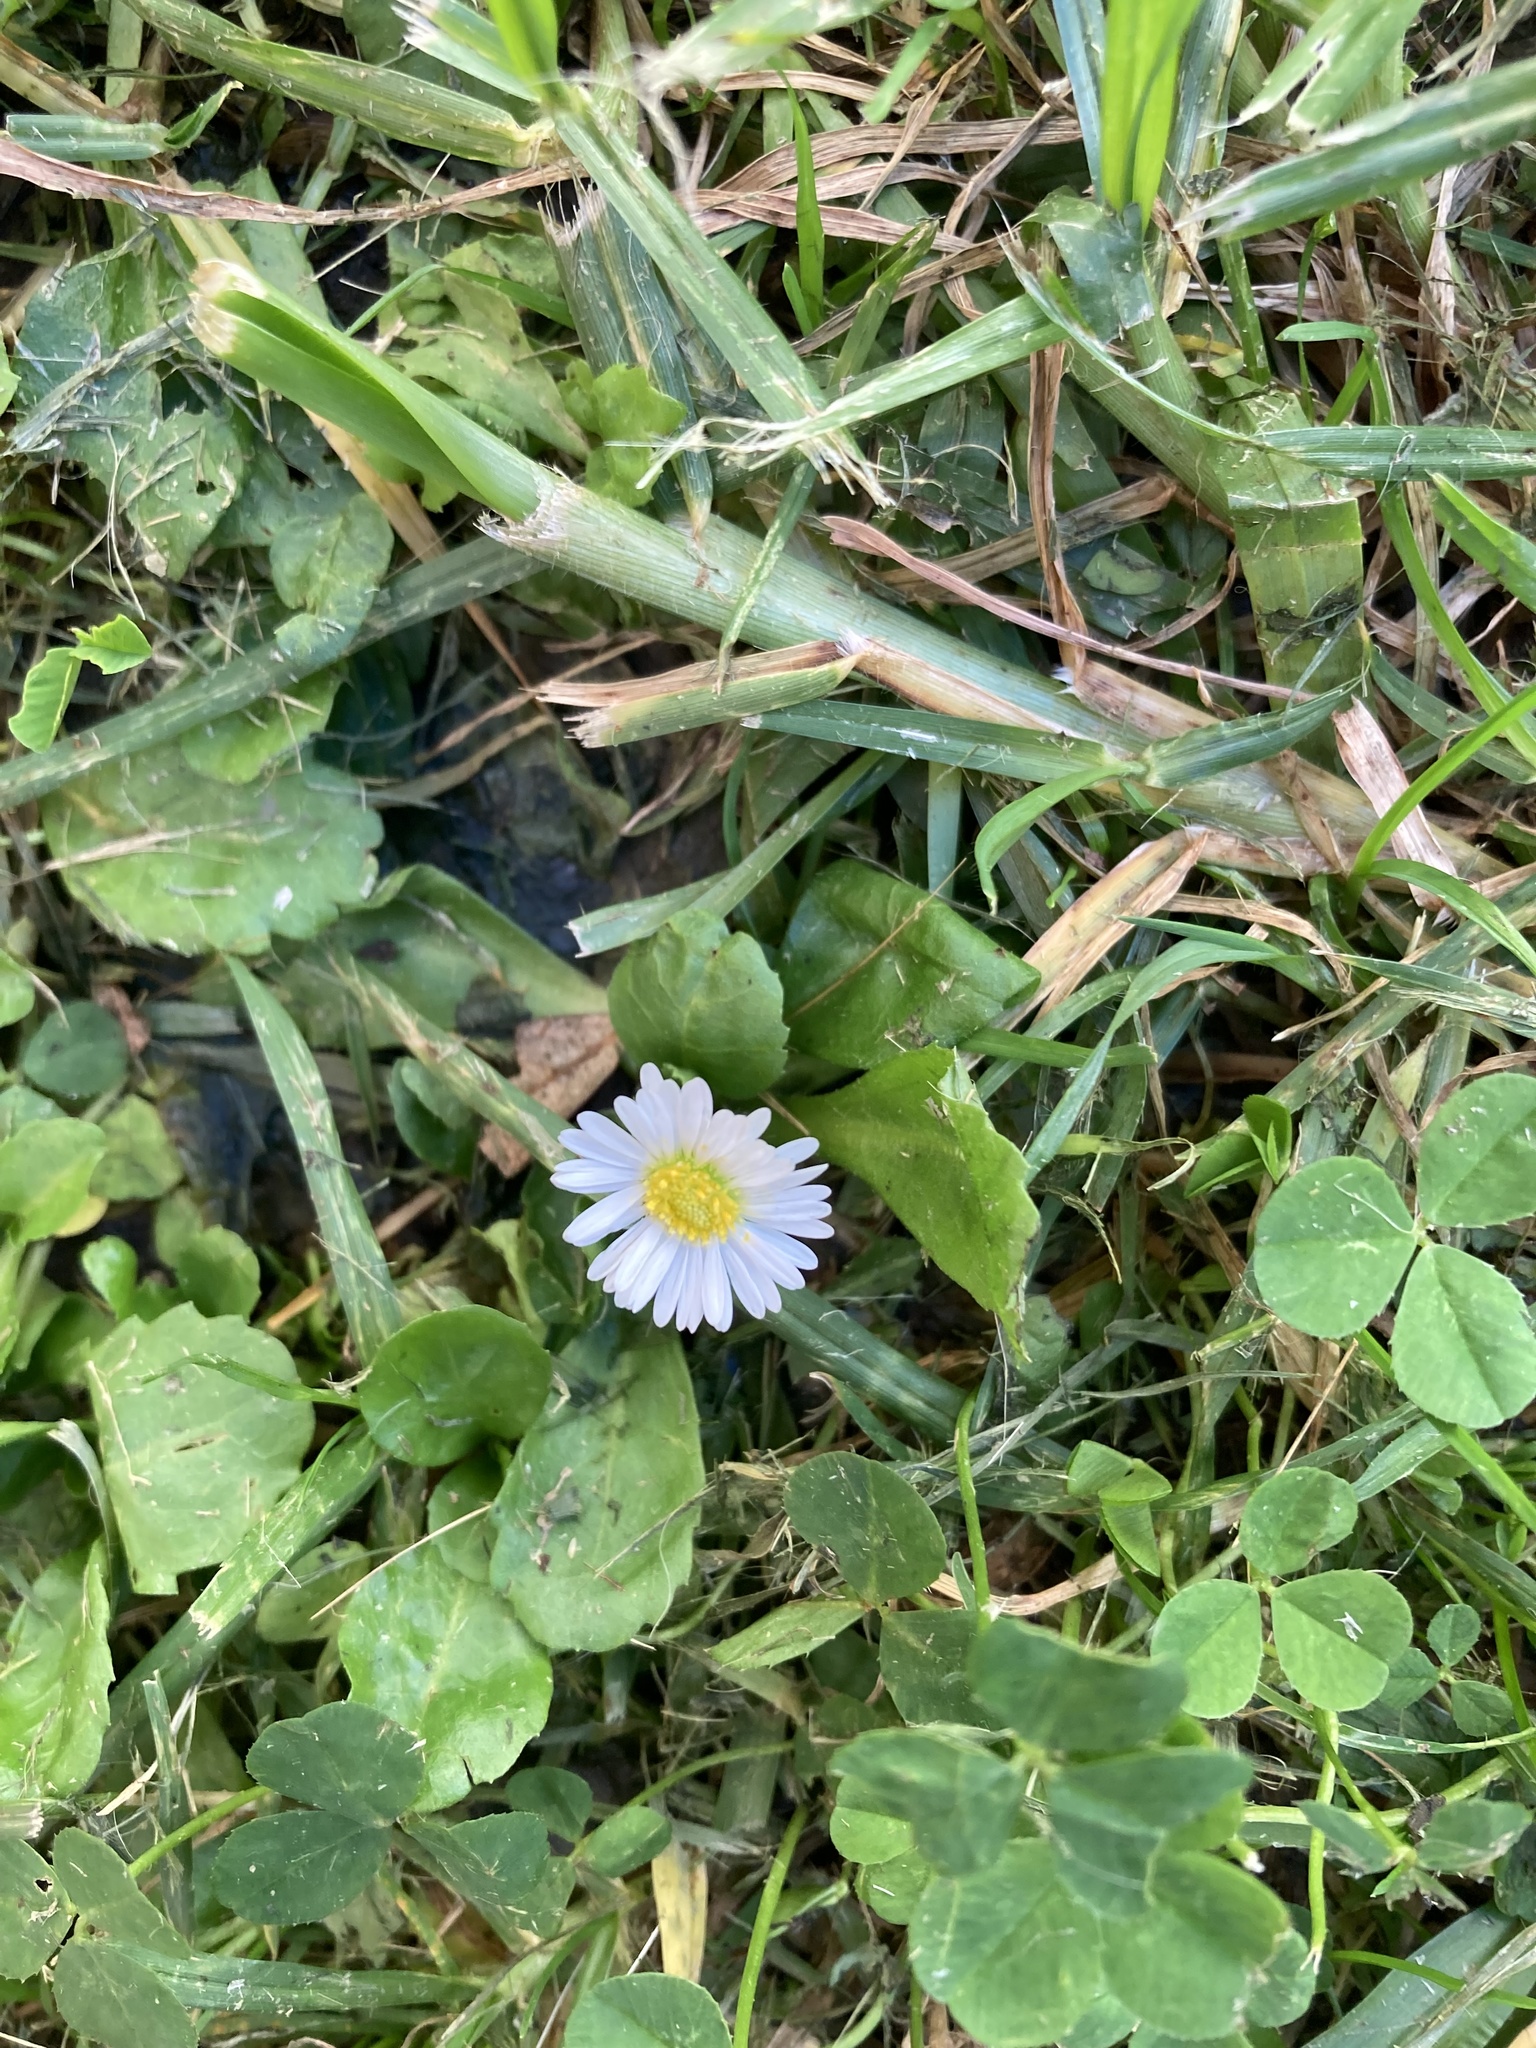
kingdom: Plantae
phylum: Tracheophyta
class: Magnoliopsida
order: Asterales
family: Asteraceae
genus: Bellis
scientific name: Bellis perennis
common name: Lawndaisy
